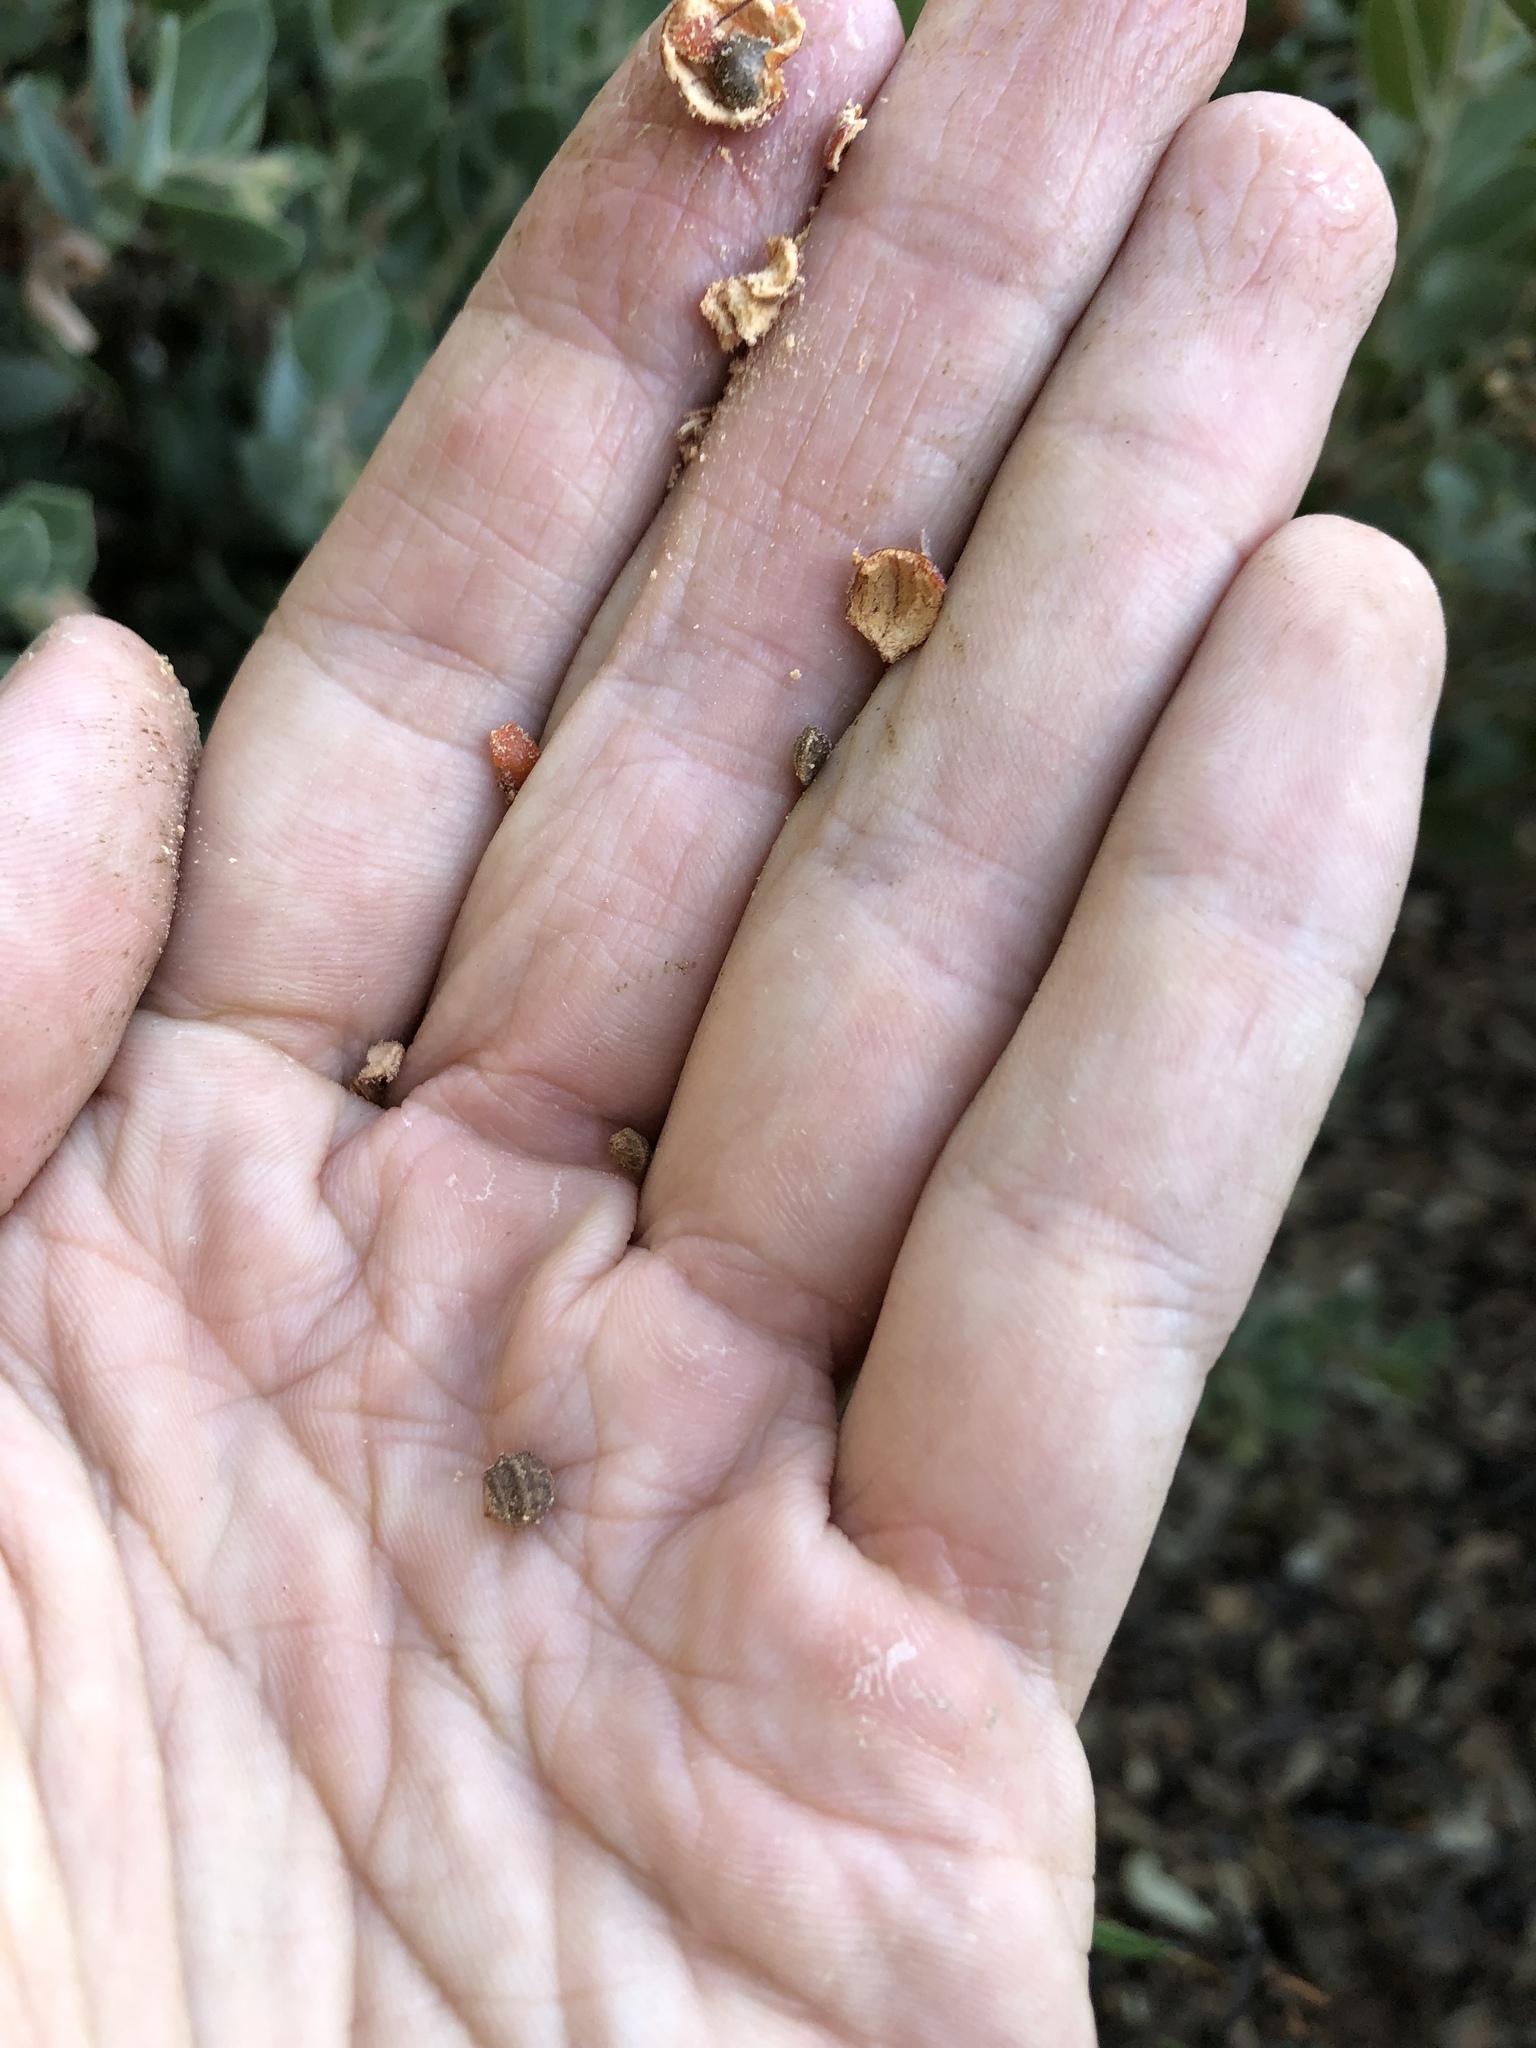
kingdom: Plantae
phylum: Tracheophyta
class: Magnoliopsida
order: Ericales
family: Ericaceae
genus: Arctostaphylos
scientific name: Arctostaphylos hooveri
